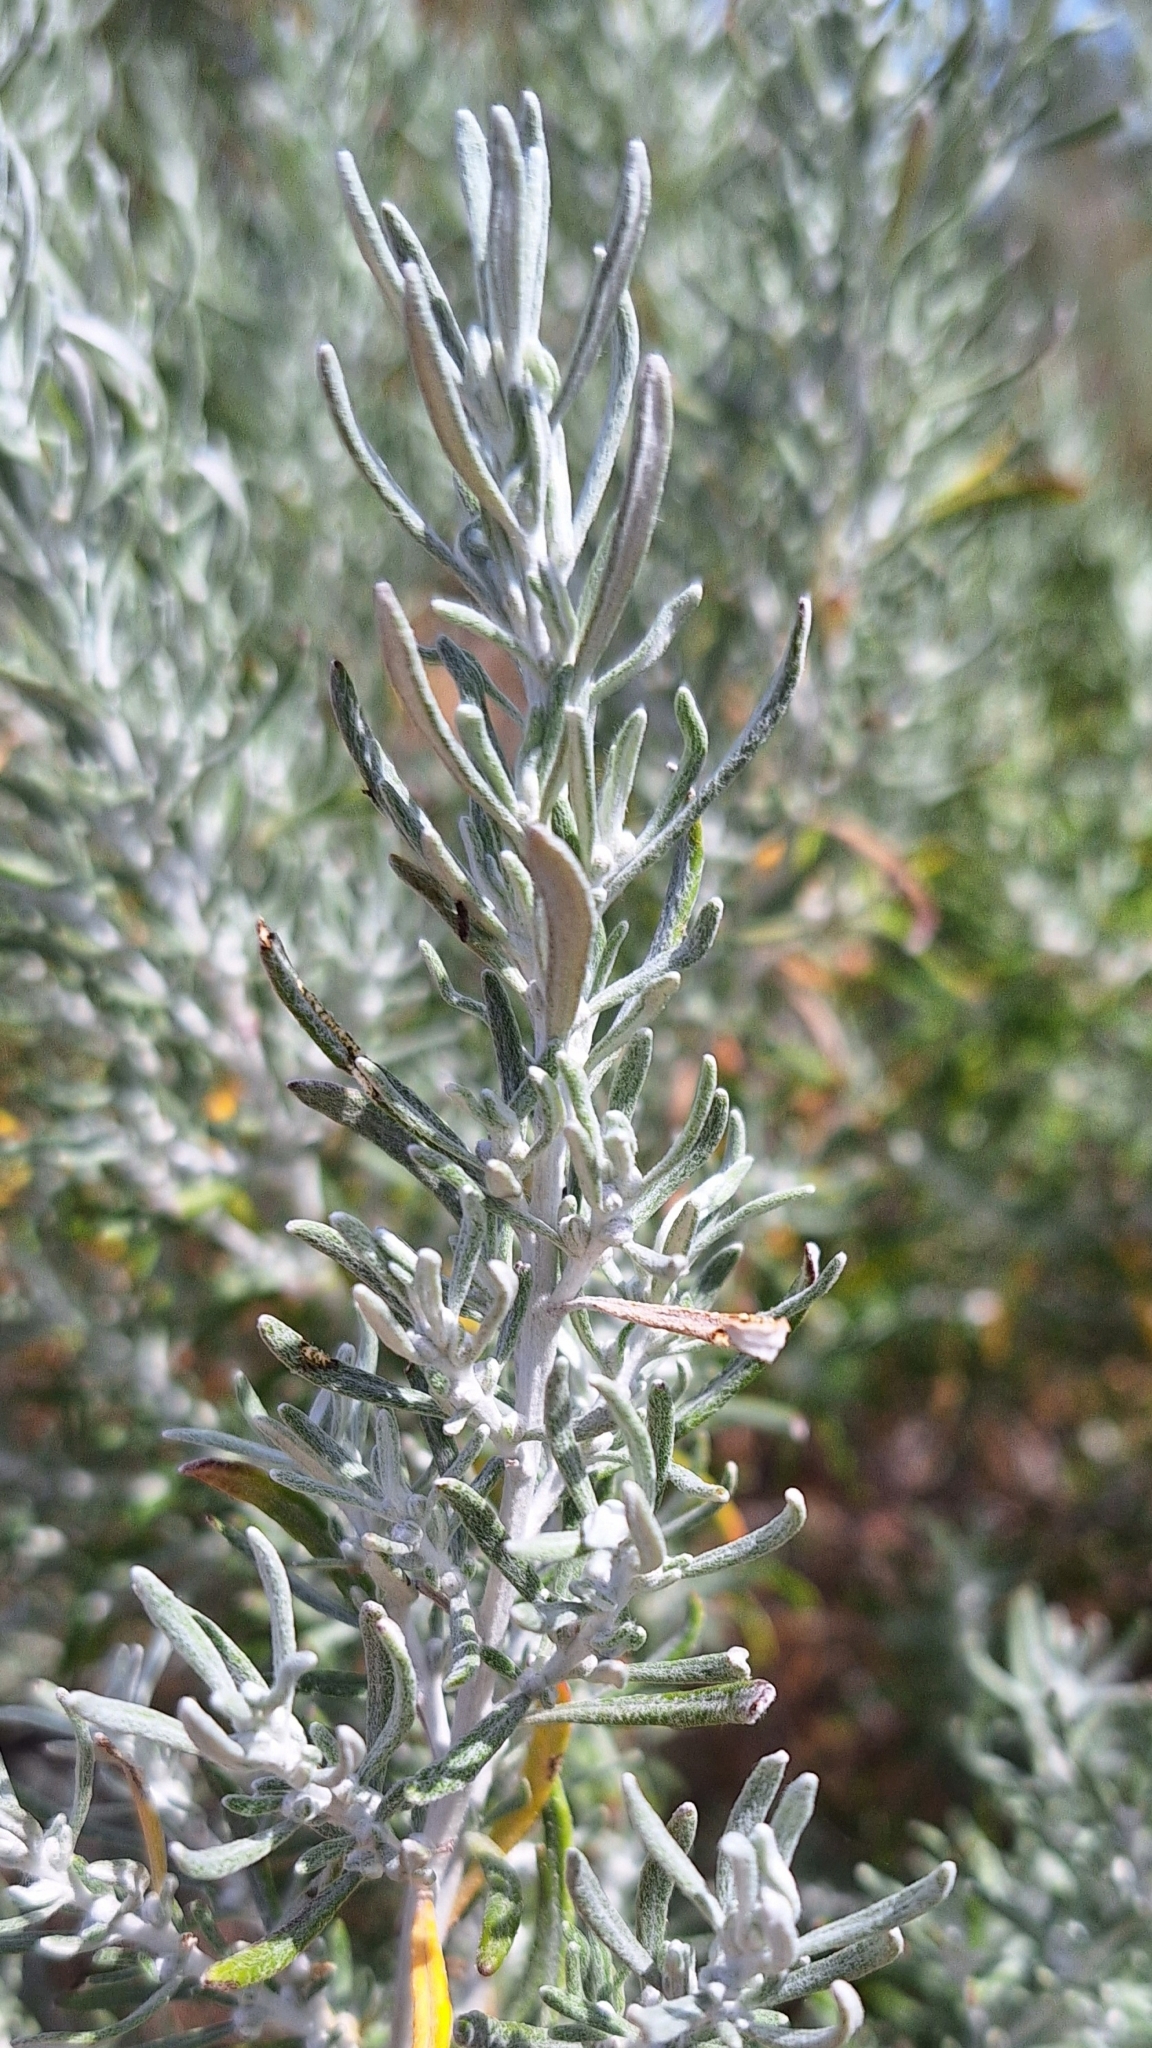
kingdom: Plantae
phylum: Tracheophyta
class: Magnoliopsida
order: Asterales
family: Asteraceae
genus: Olearia
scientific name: Olearia axillaris
